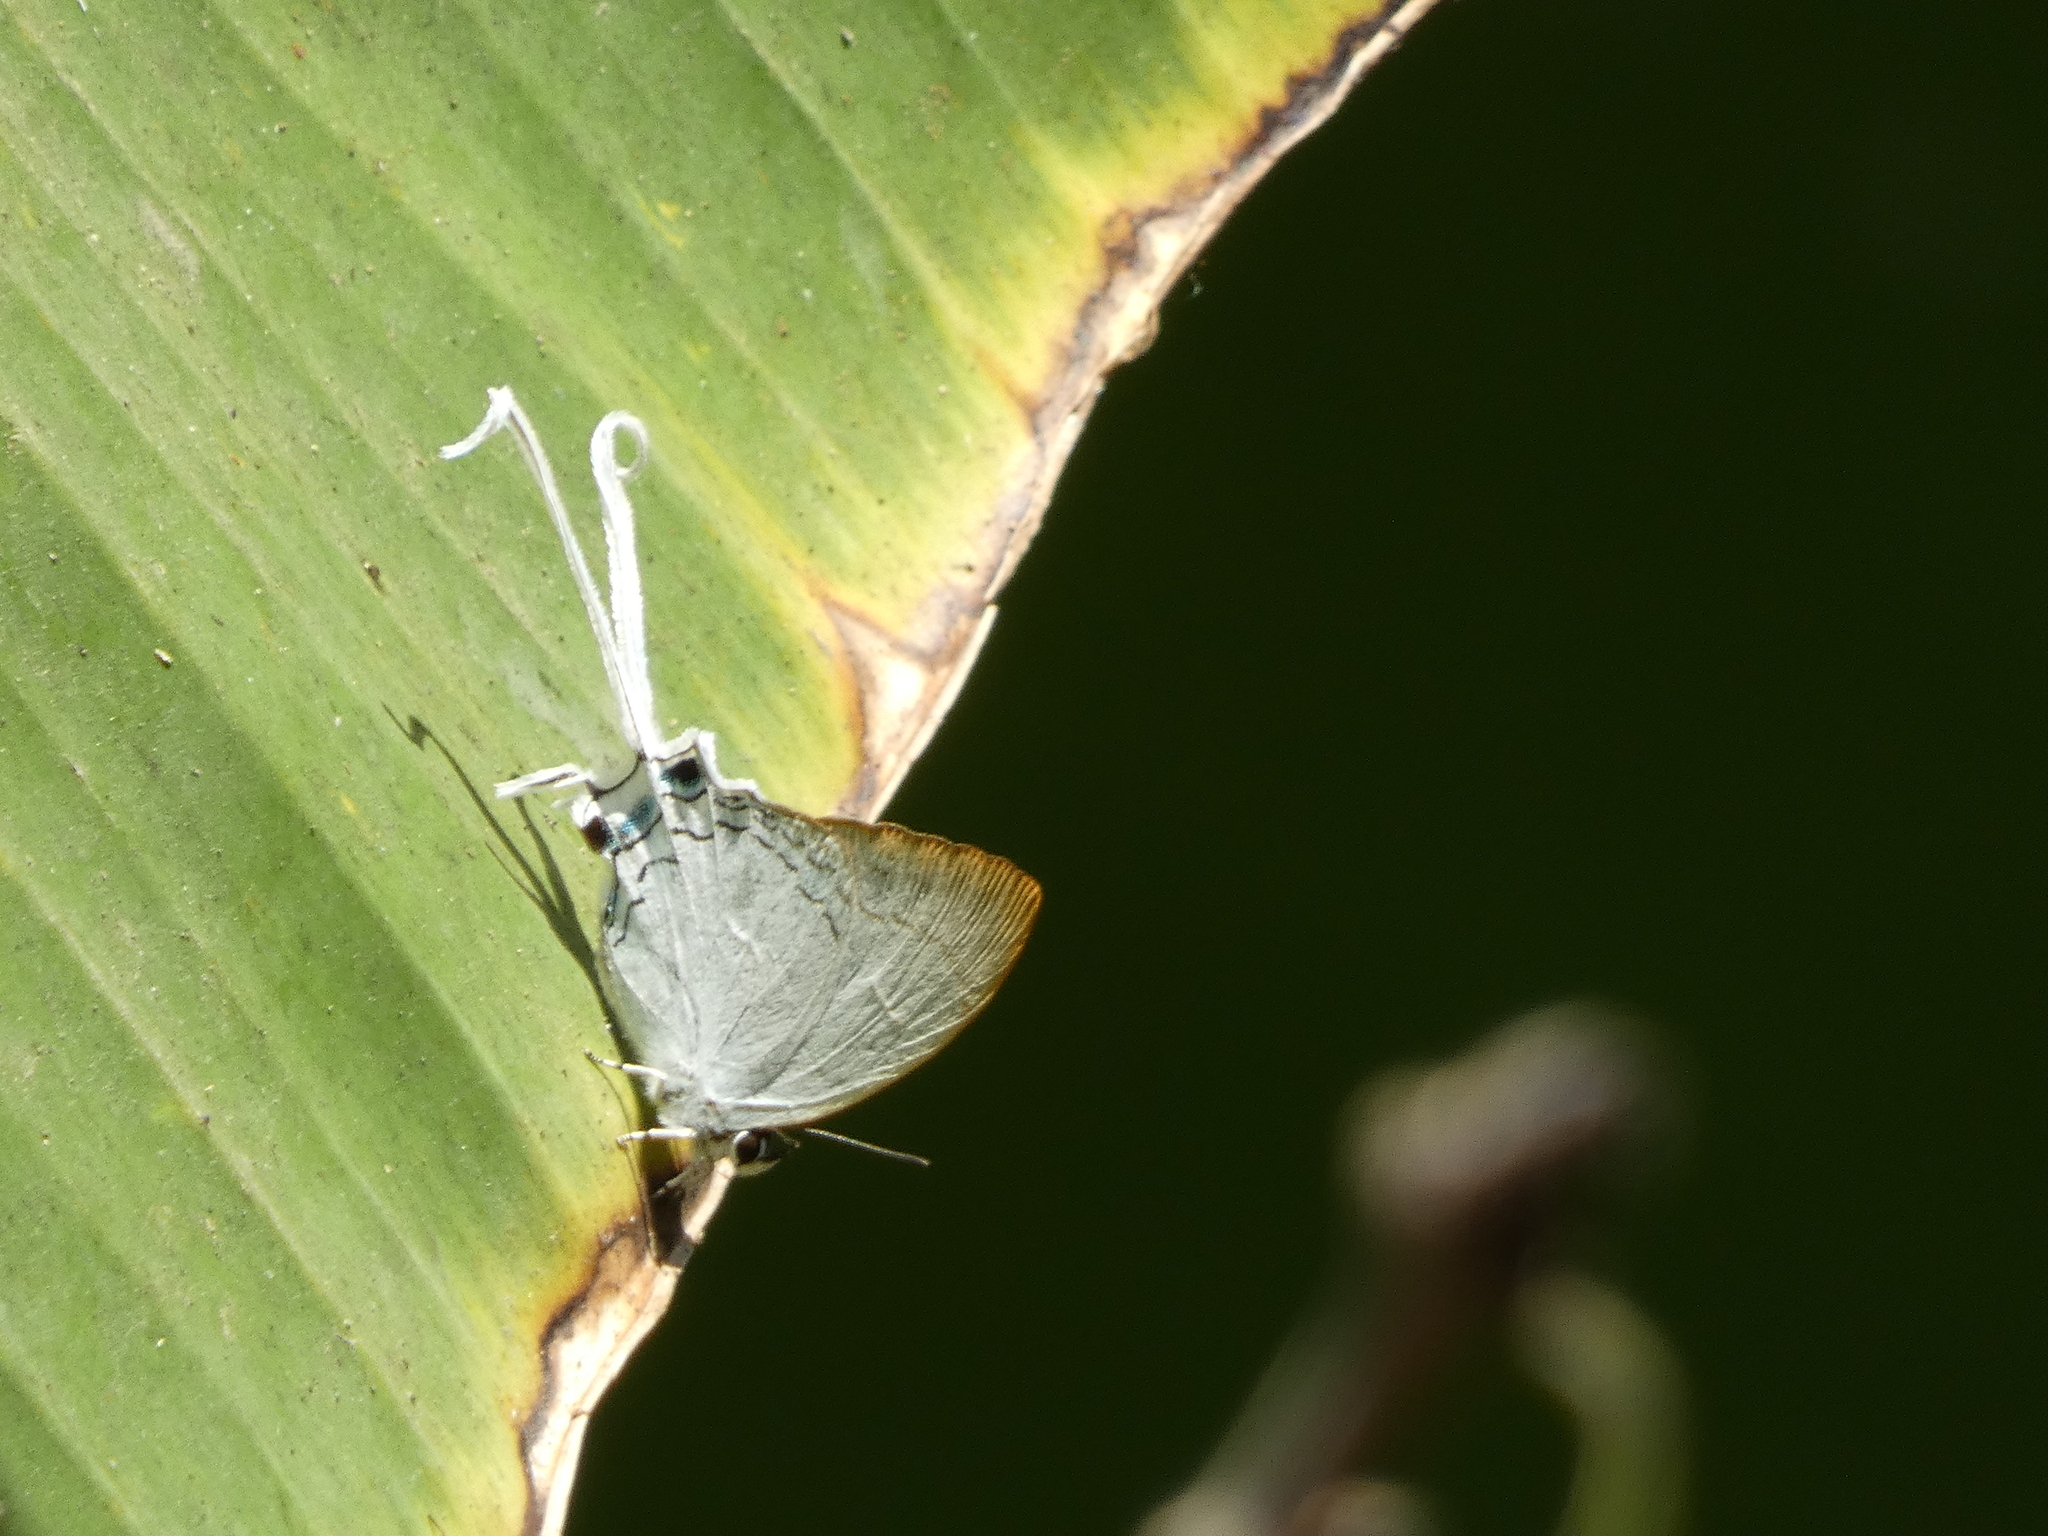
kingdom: Animalia
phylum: Arthropoda
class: Insecta
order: Lepidoptera
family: Lycaenidae
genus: Cheritra
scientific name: Cheritra freja
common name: Common imperial
